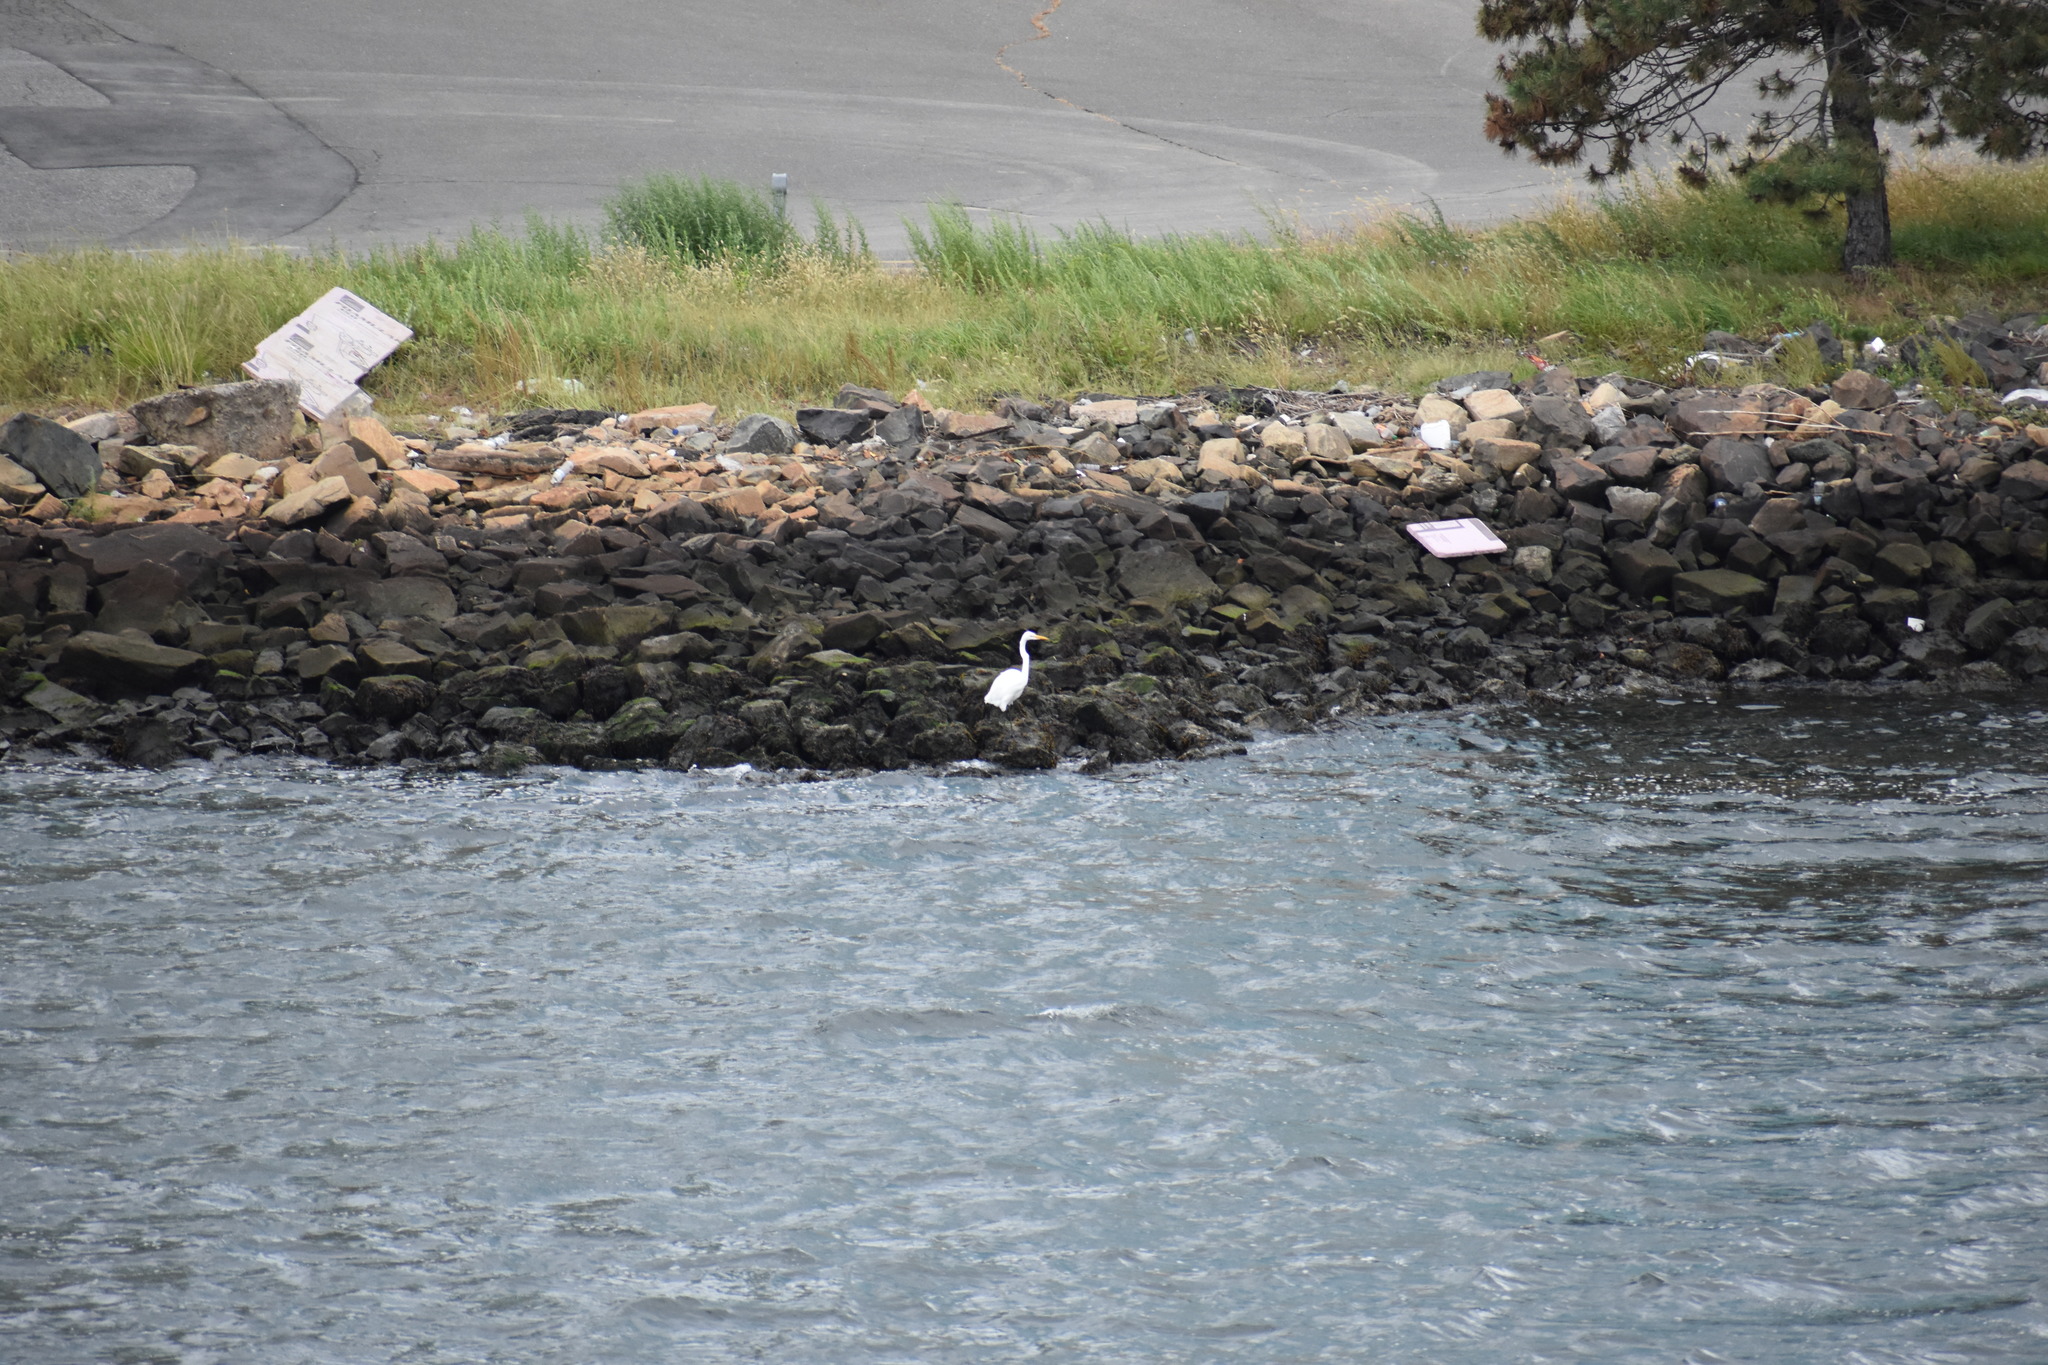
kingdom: Animalia
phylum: Chordata
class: Aves
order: Pelecaniformes
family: Ardeidae
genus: Ardea
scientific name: Ardea alba
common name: Great egret
